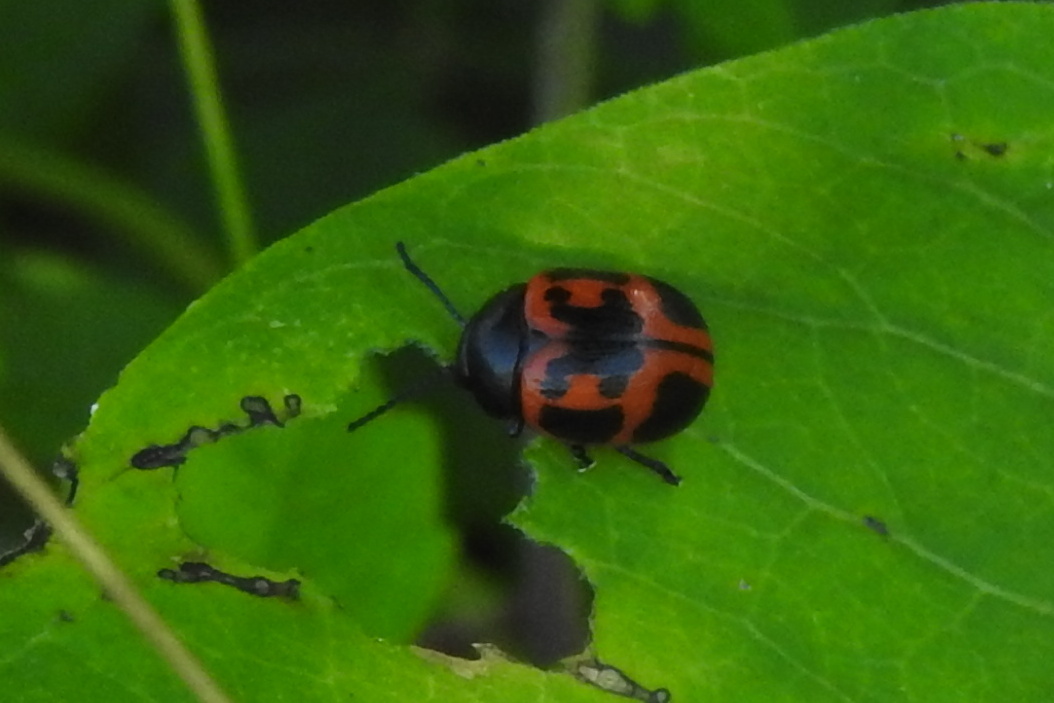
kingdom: Animalia
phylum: Arthropoda
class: Insecta
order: Coleoptera
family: Chrysomelidae
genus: Labidomera
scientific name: Labidomera clivicollis
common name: Swamp milkweed leaf beetle
